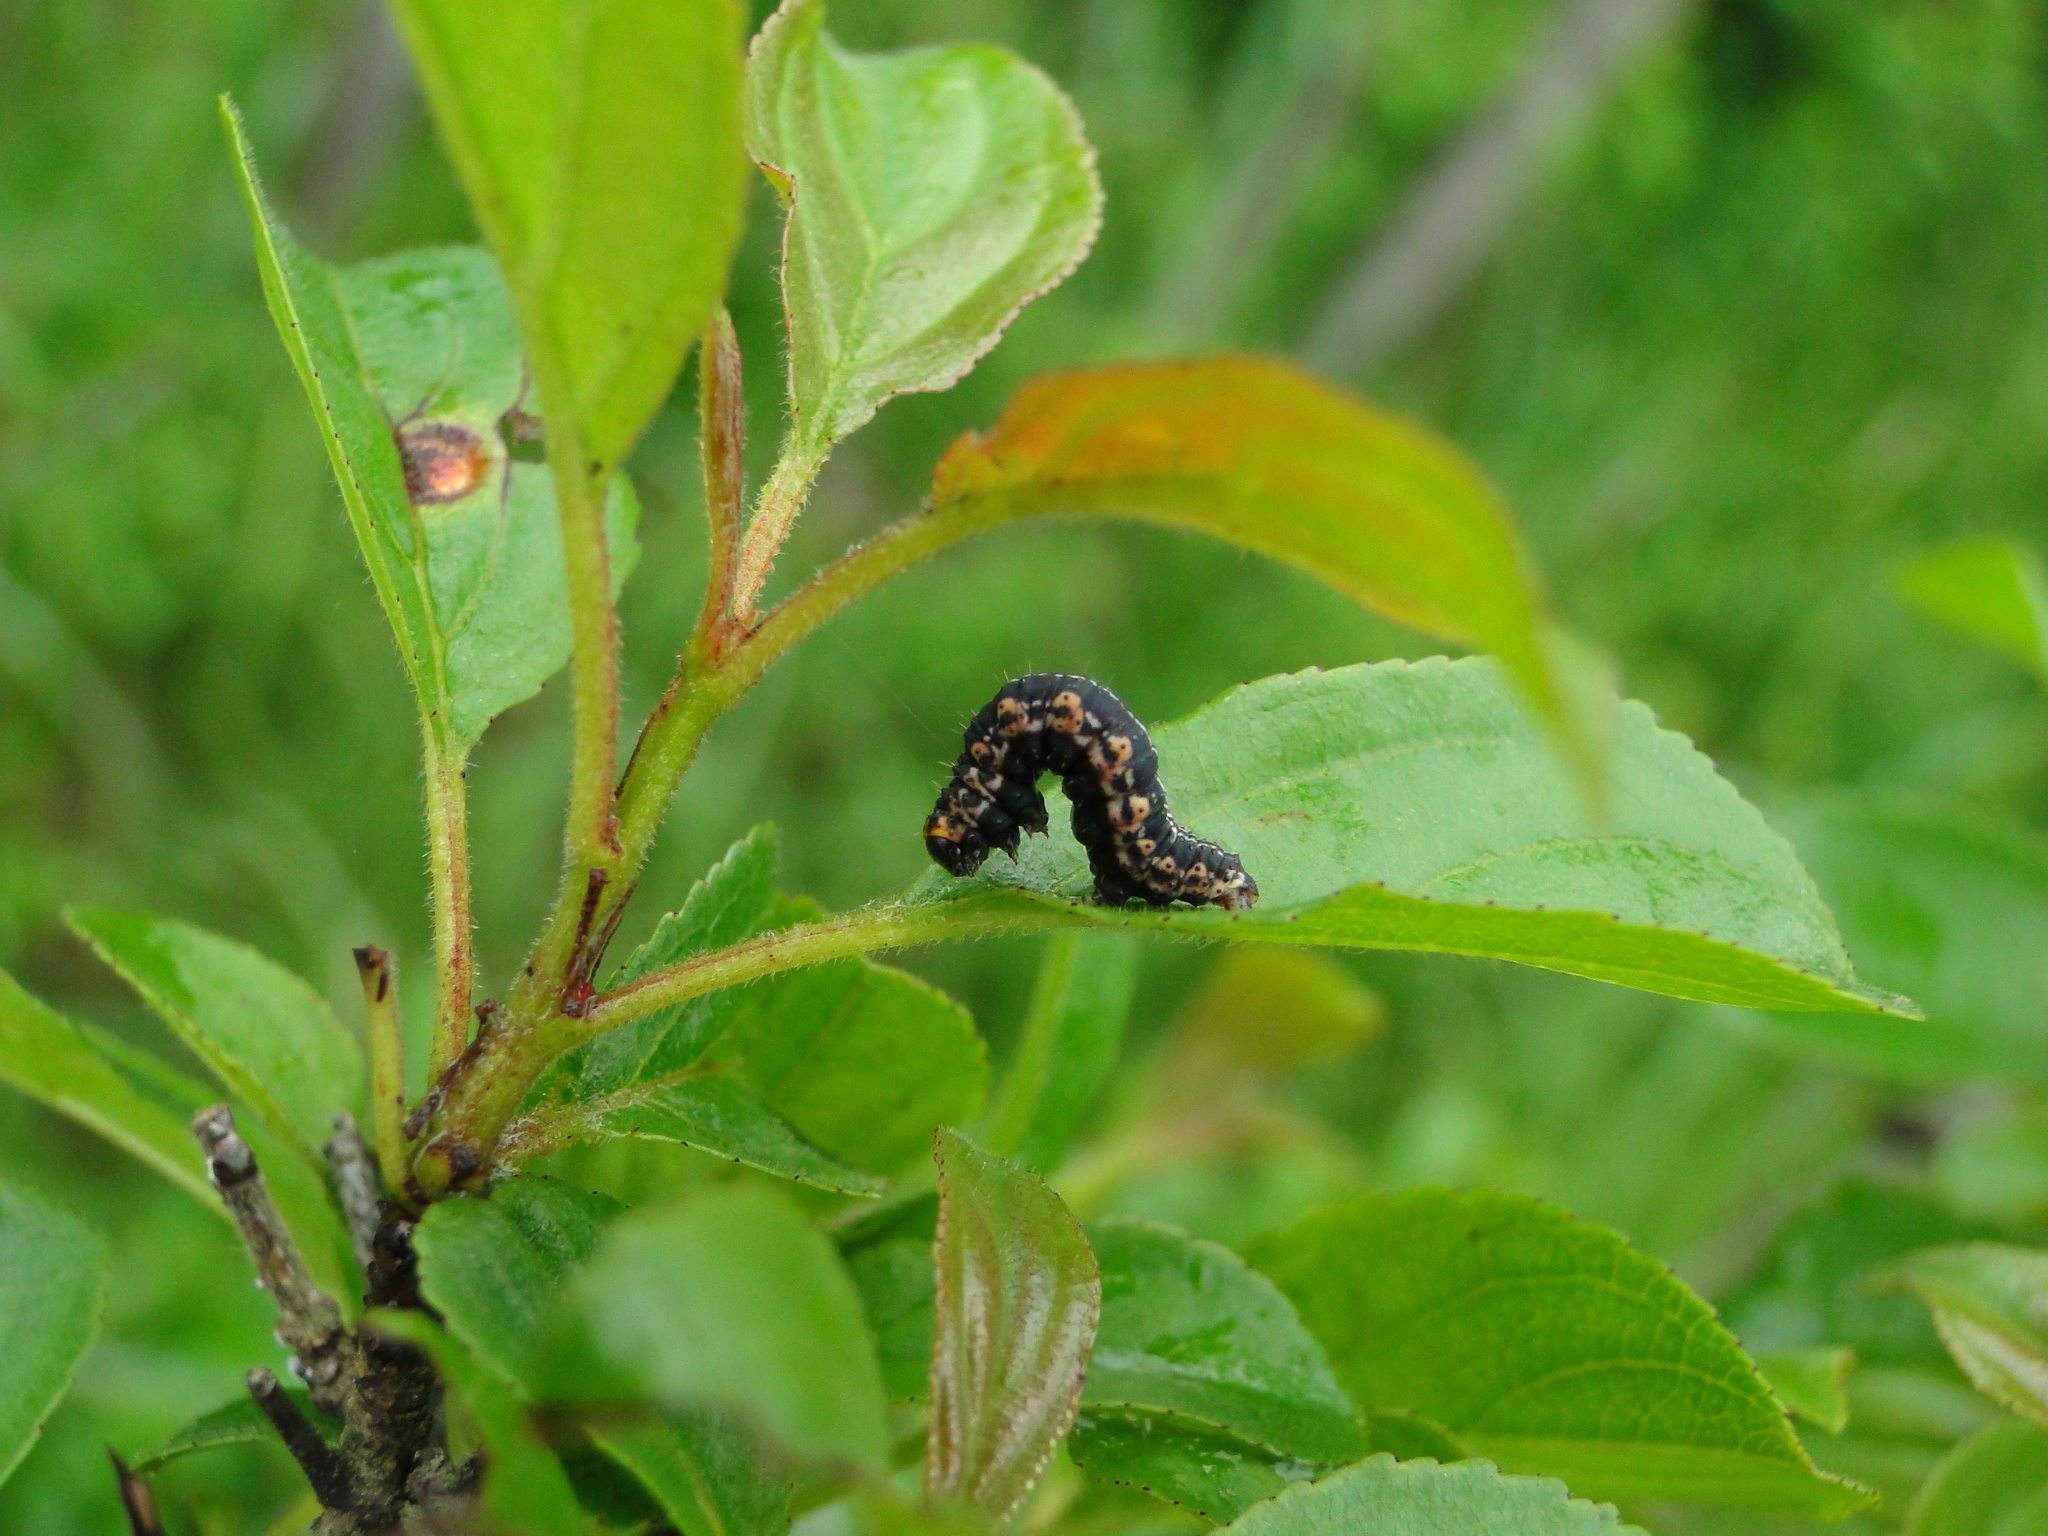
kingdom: Animalia
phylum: Arthropoda
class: Insecta
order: Lepidoptera
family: Geometridae
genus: Philereme
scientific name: Philereme vetulata
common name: Brown scallop
